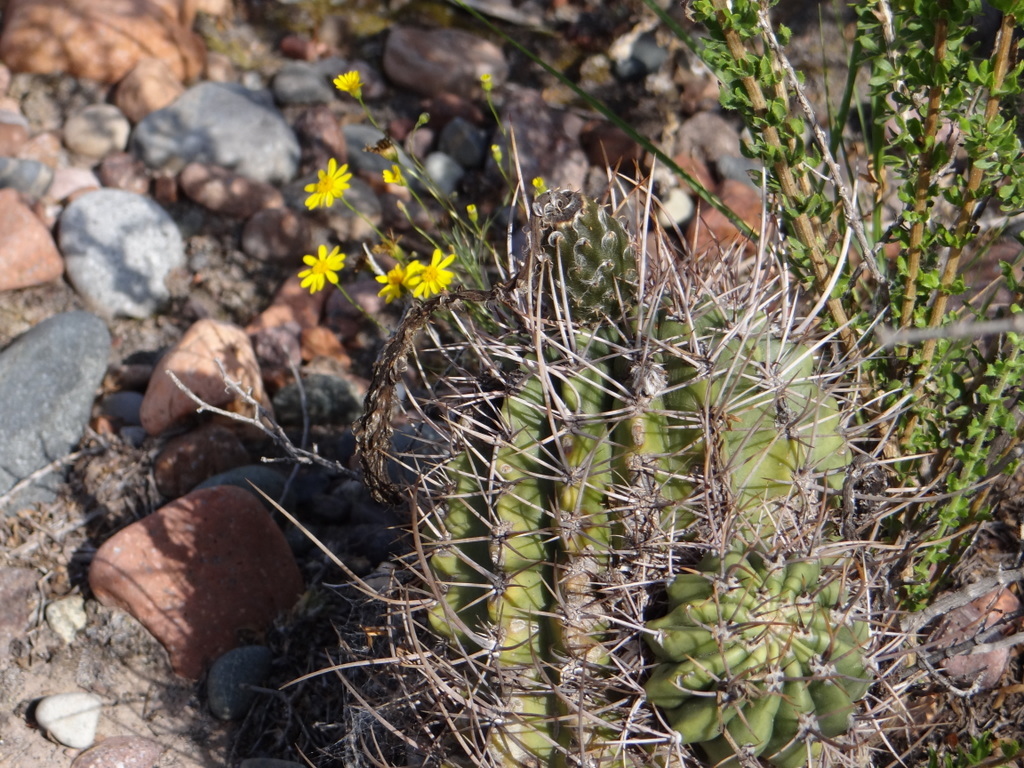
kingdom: Plantae
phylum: Tracheophyta
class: Magnoliopsida
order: Caryophyllales
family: Cactaceae
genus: Acanthocalycium
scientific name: Acanthocalycium leucanthum
